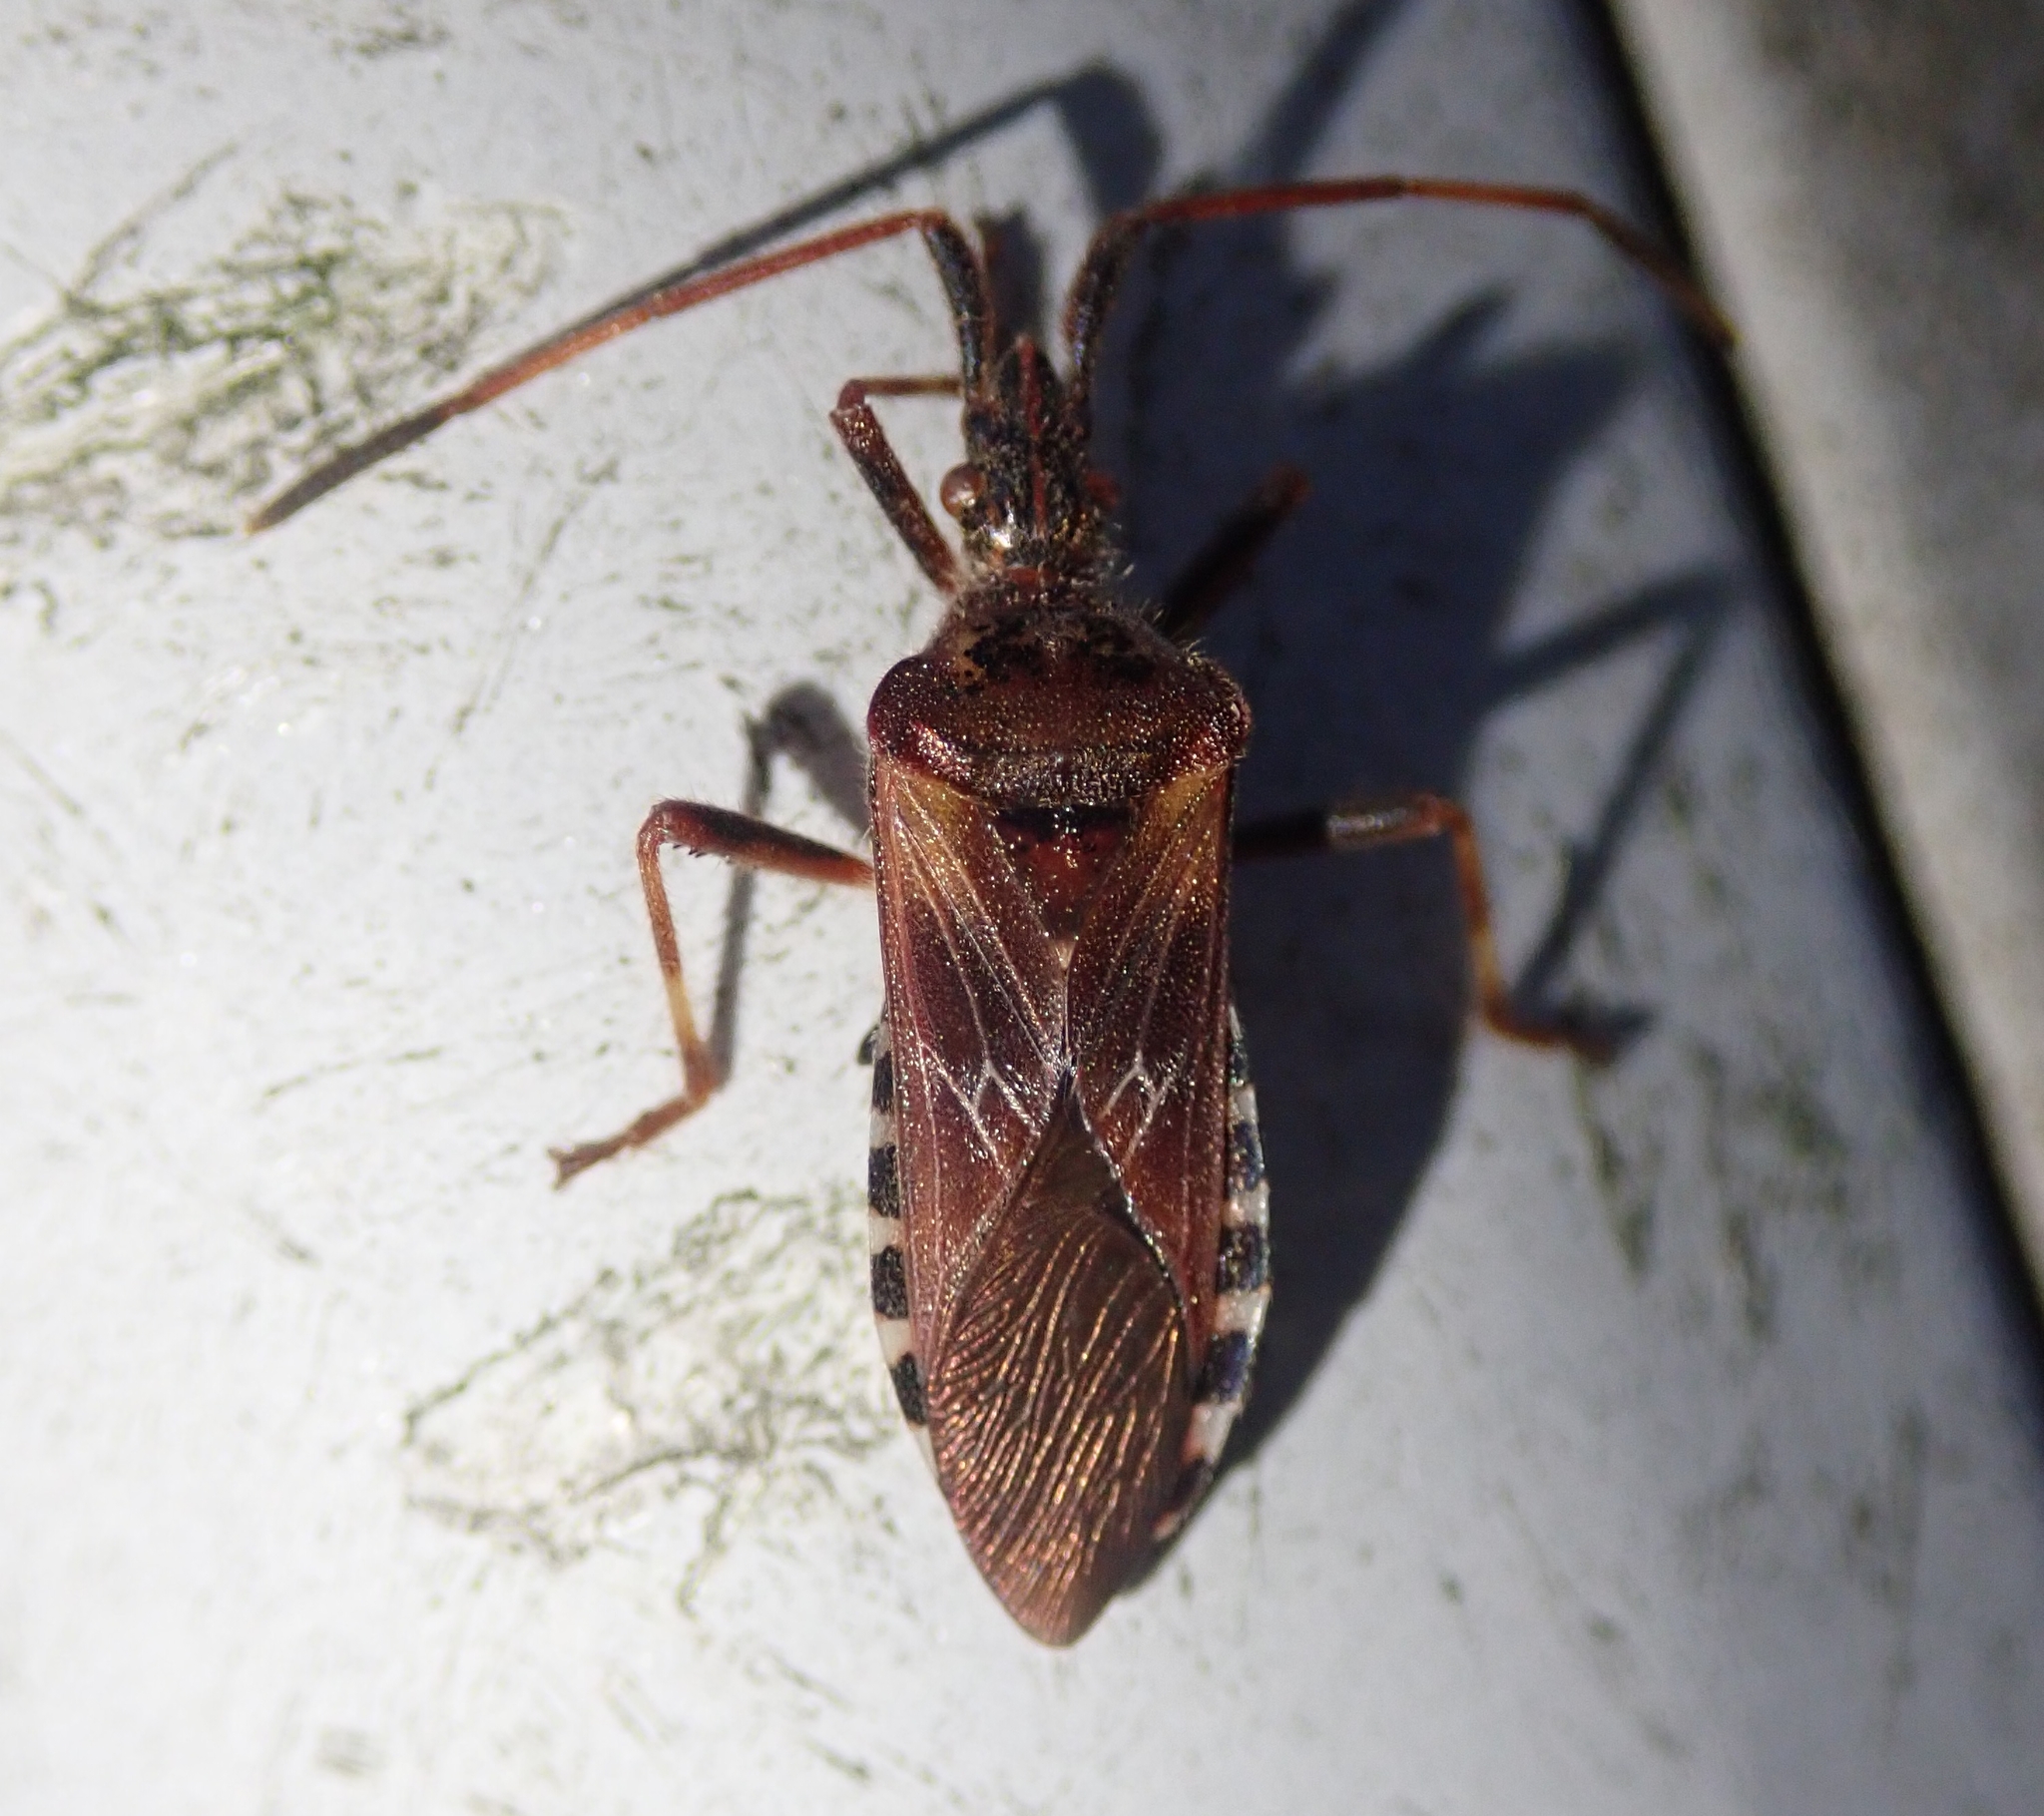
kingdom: Animalia
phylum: Arthropoda
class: Insecta
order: Hemiptera
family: Coreidae
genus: Leptoglossus
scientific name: Leptoglossus occidentalis
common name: Western conifer-seed bug
